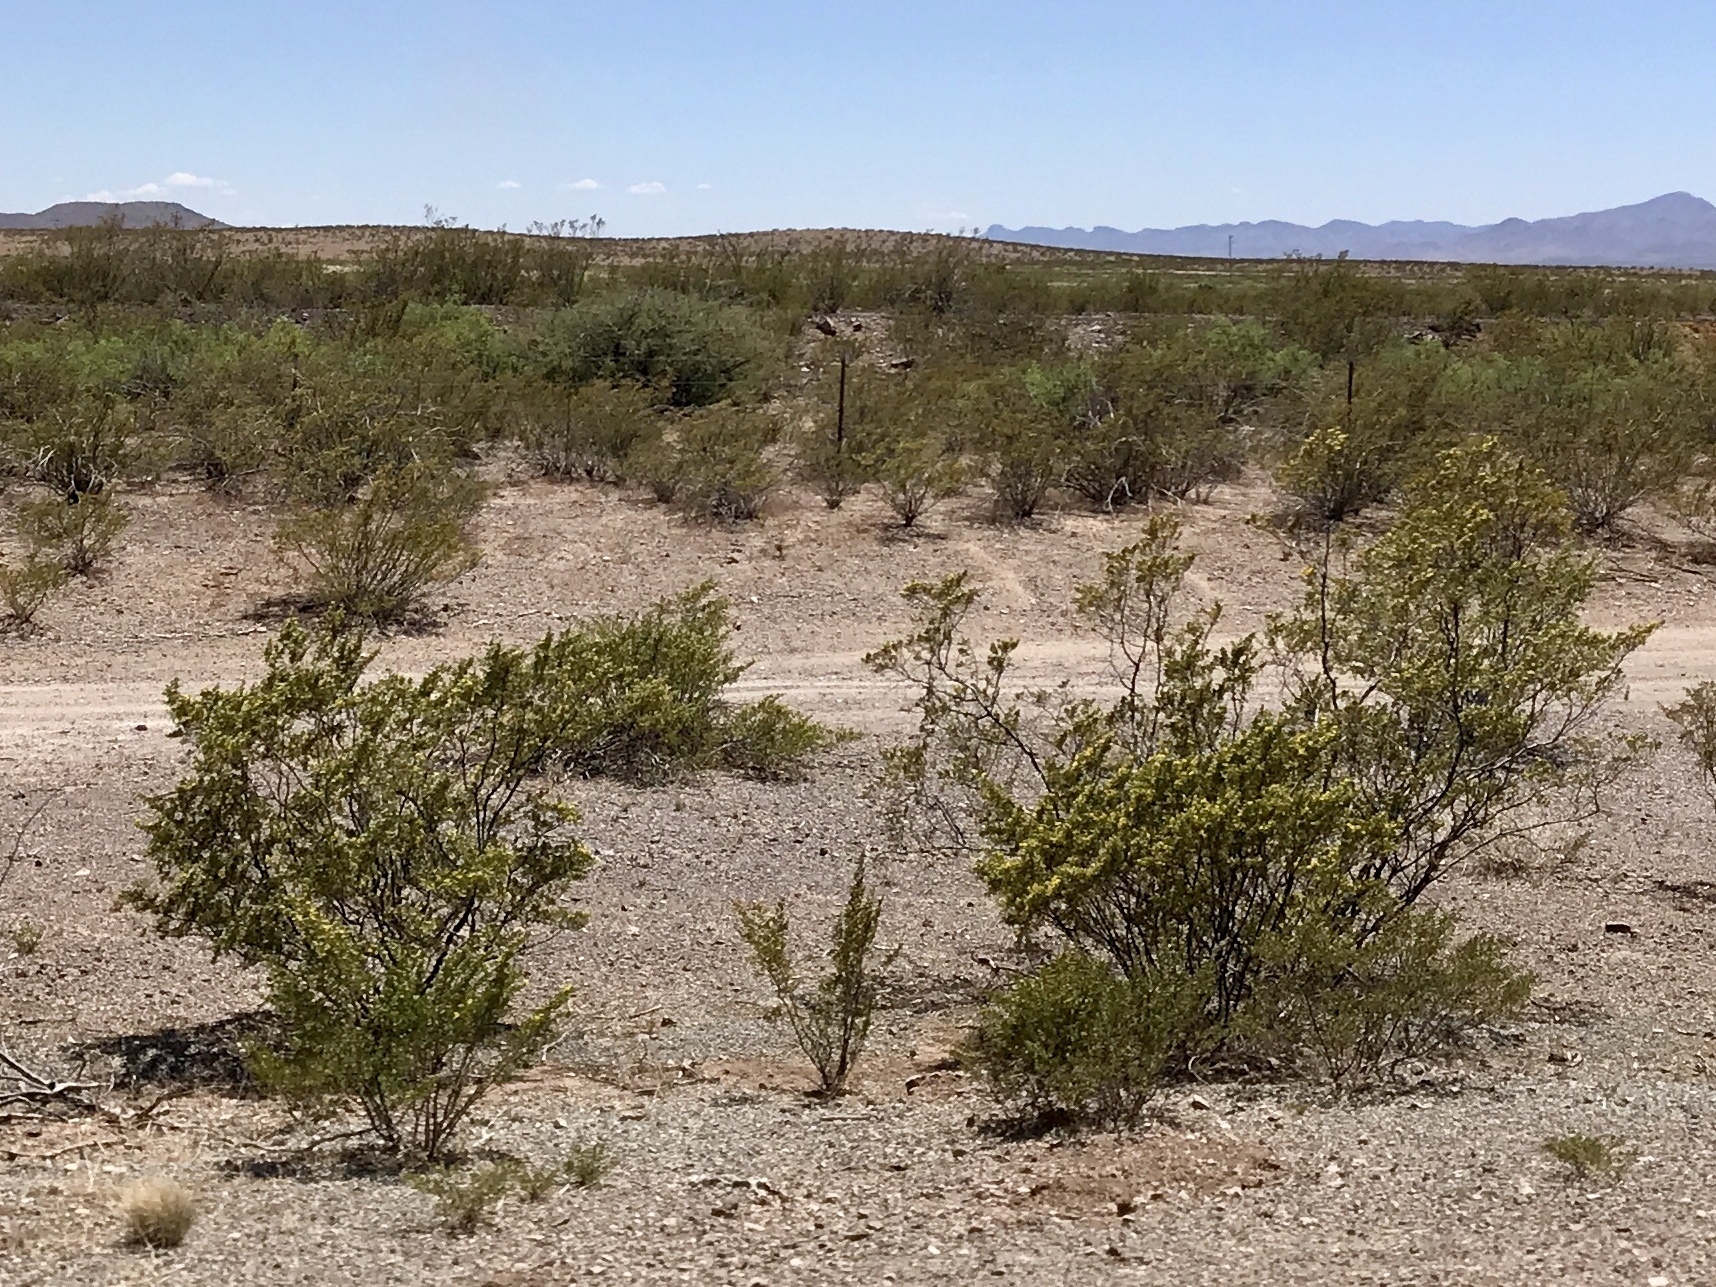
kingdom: Plantae
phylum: Tracheophyta
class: Magnoliopsida
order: Zygophyllales
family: Zygophyllaceae
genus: Larrea
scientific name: Larrea tridentata
